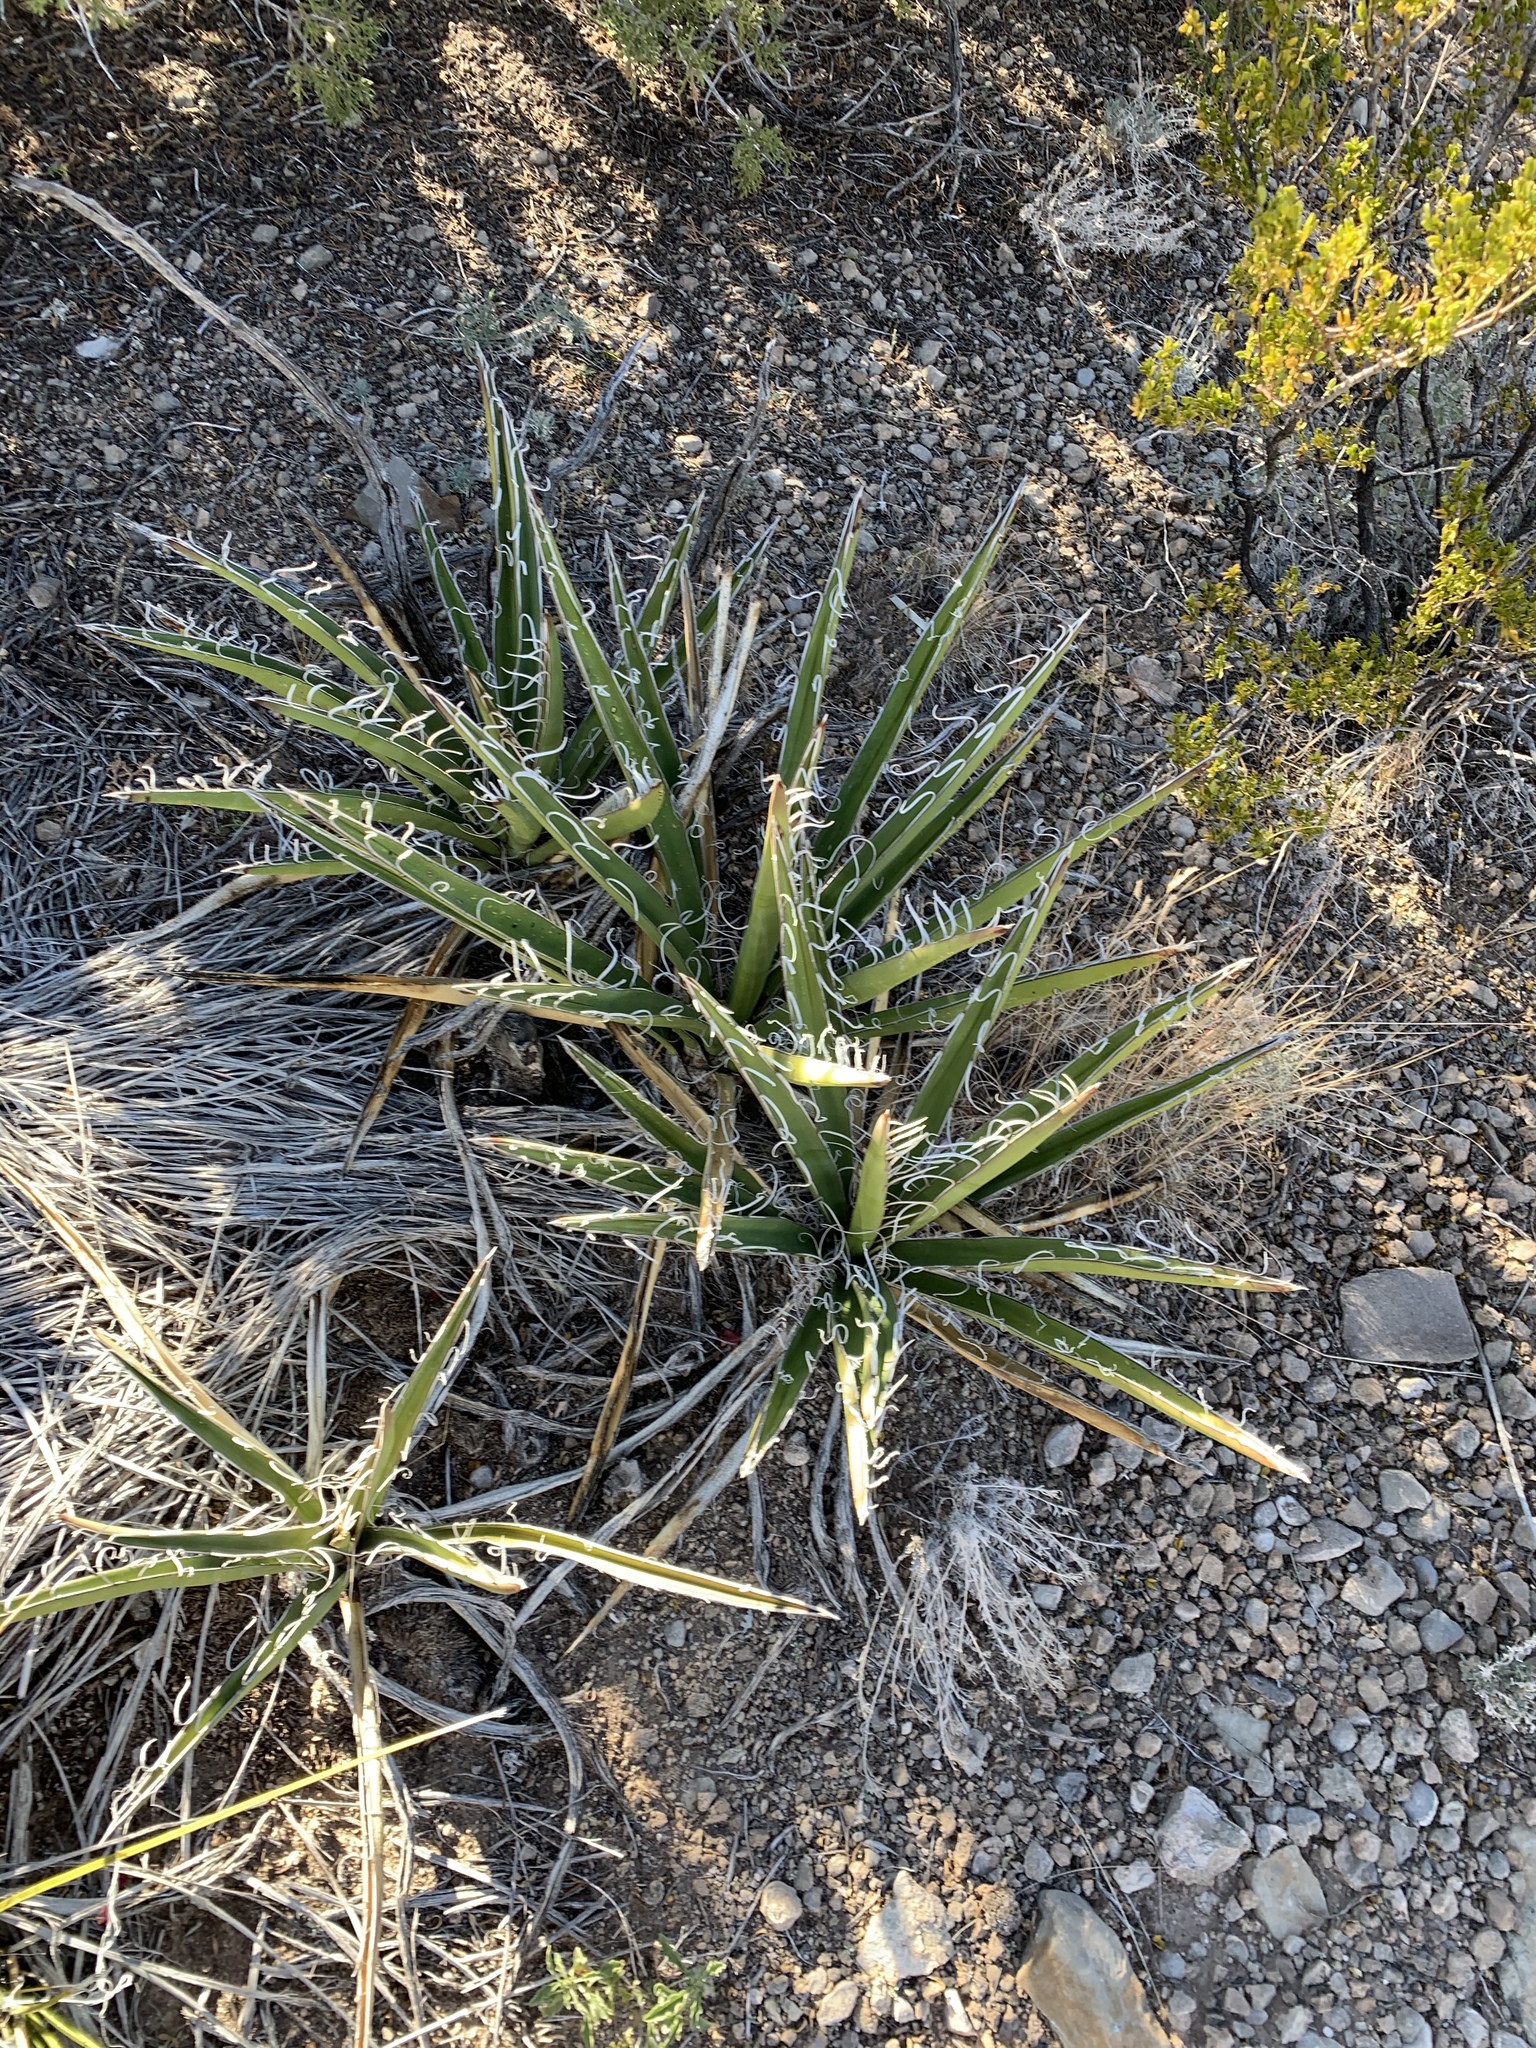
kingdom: Plantae
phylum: Tracheophyta
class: Liliopsida
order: Asparagales
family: Asparagaceae
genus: Yucca
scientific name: Yucca baccata
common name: Banana yucca
